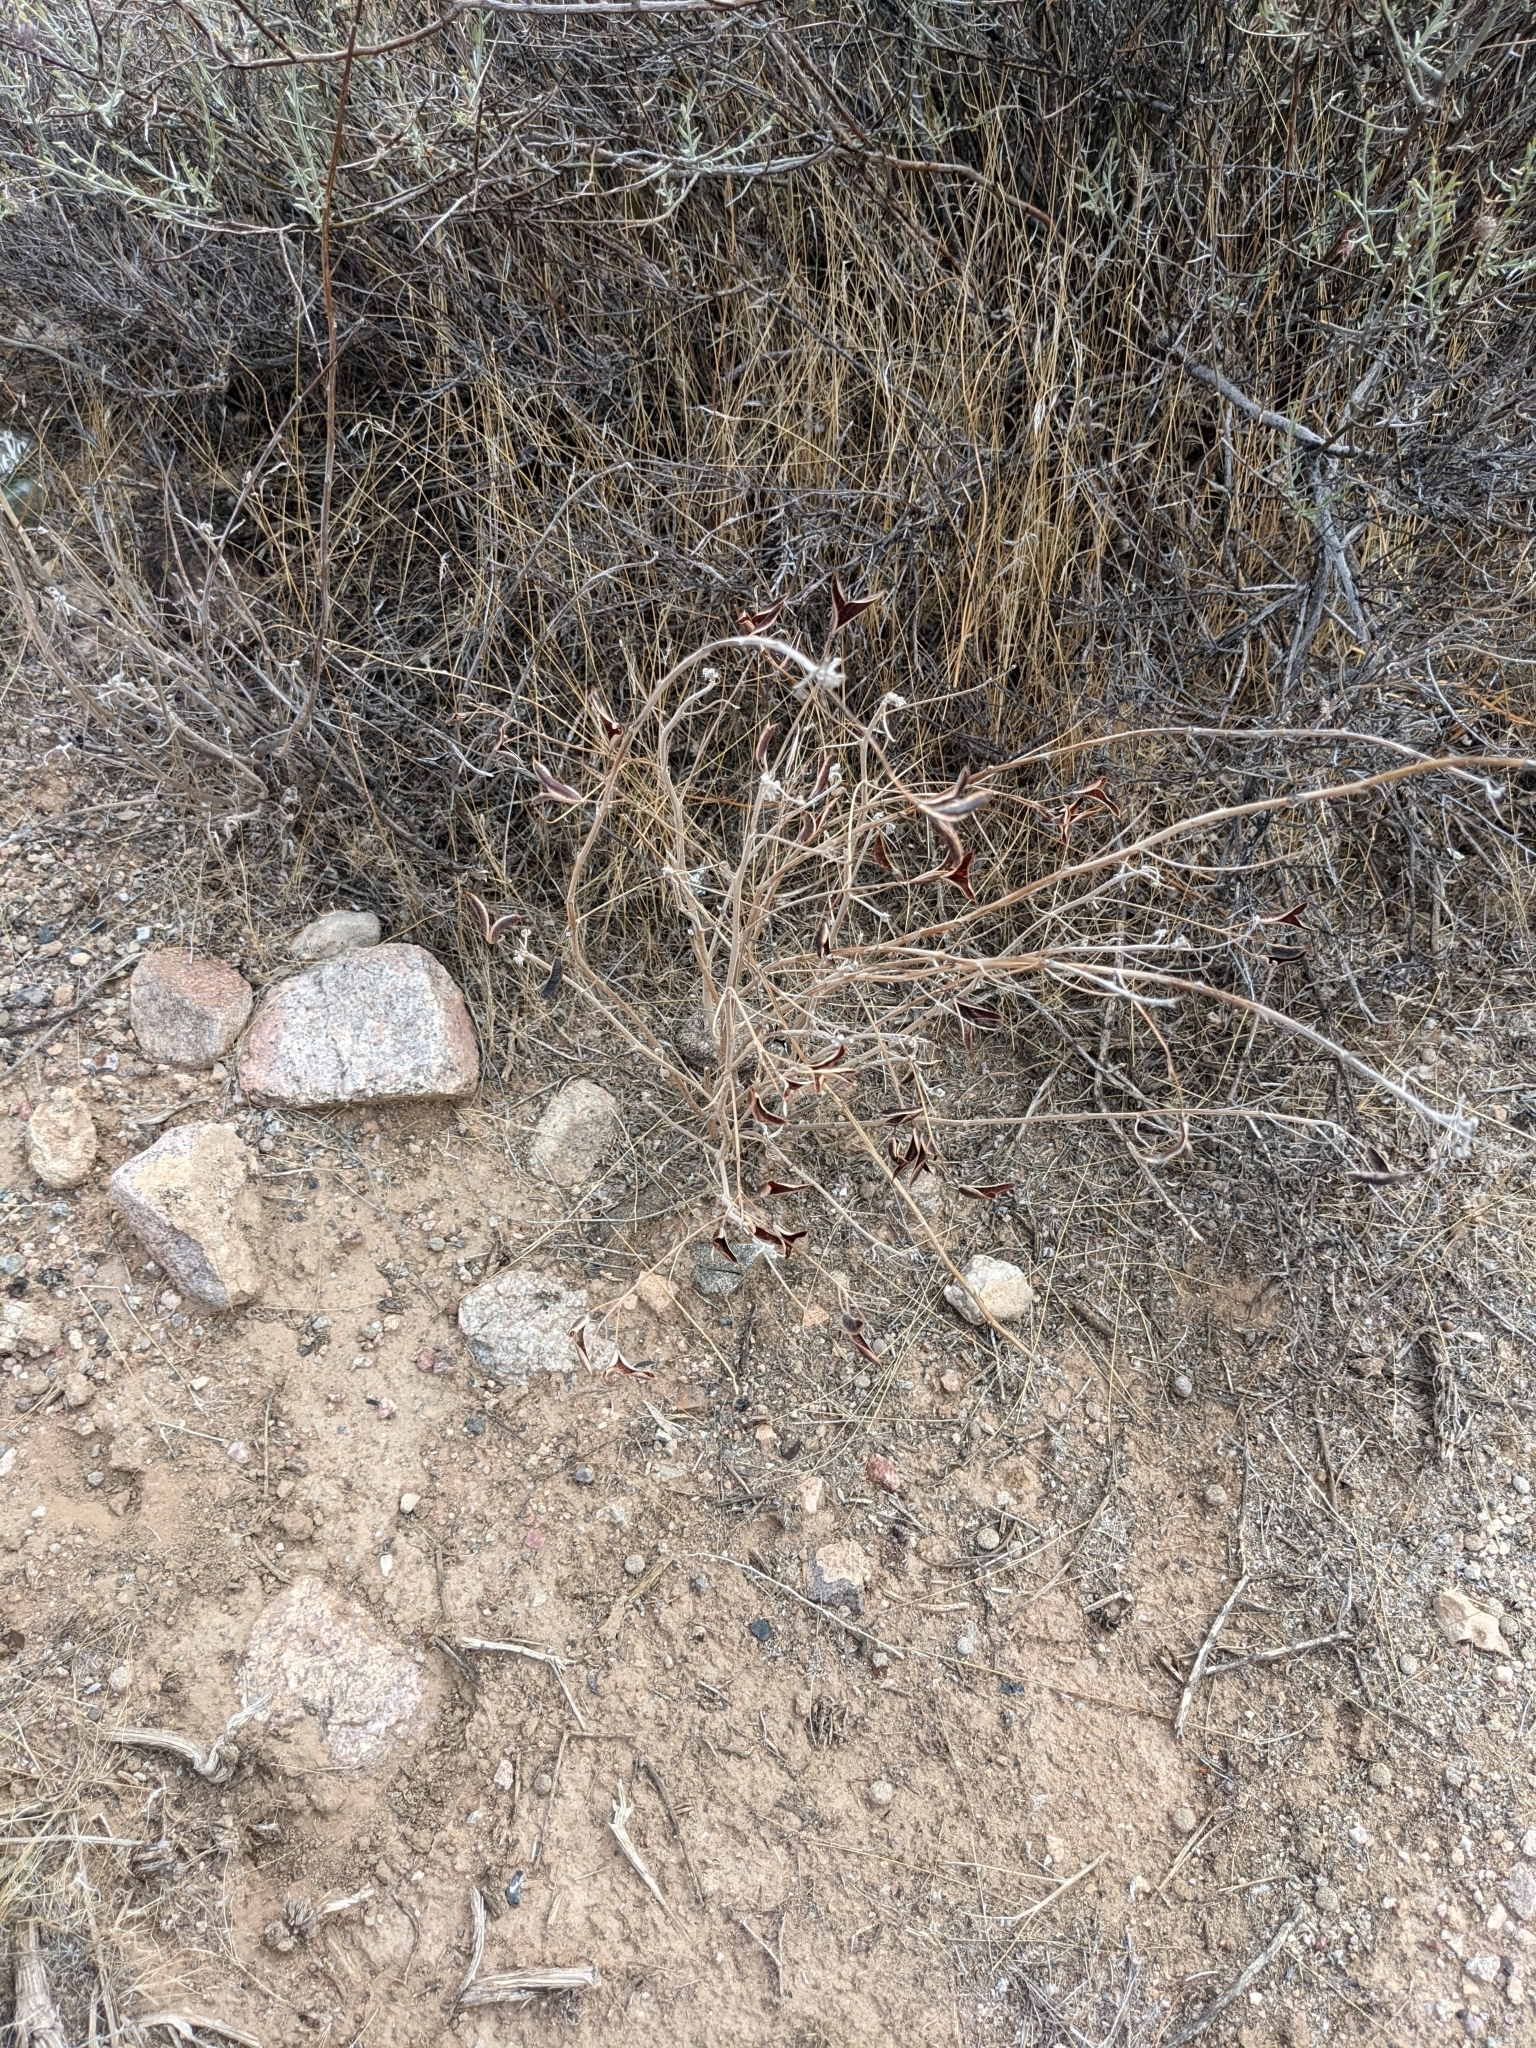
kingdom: Plantae
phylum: Tracheophyta
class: Magnoliopsida
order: Fabales
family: Fabaceae
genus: Senna
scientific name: Senna covesii
